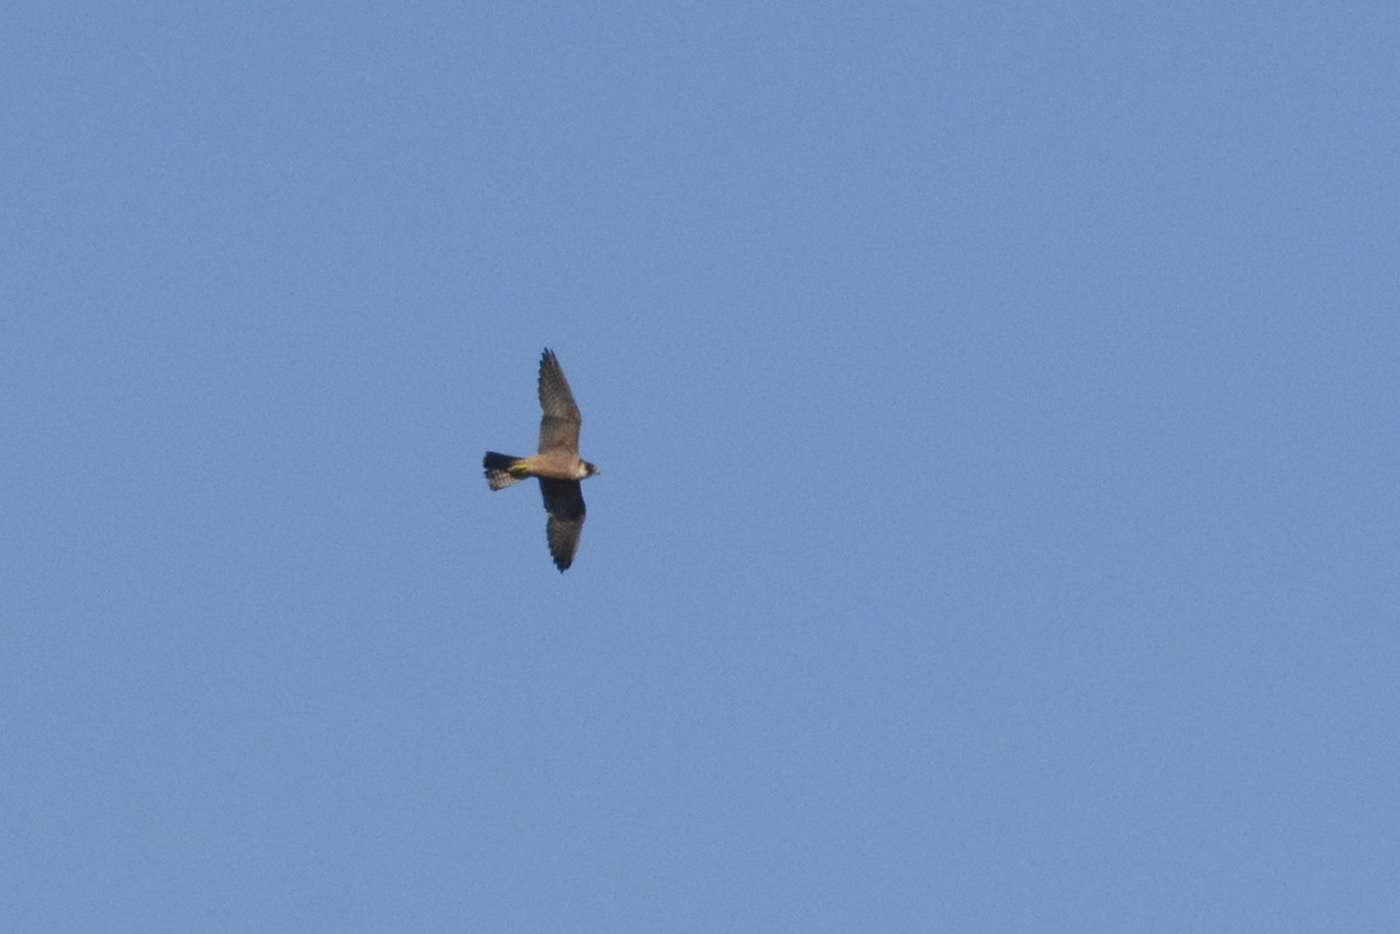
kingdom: Animalia
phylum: Chordata
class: Aves
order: Falconiformes
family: Falconidae
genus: Falco
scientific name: Falco longipennis
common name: Australian hobby
